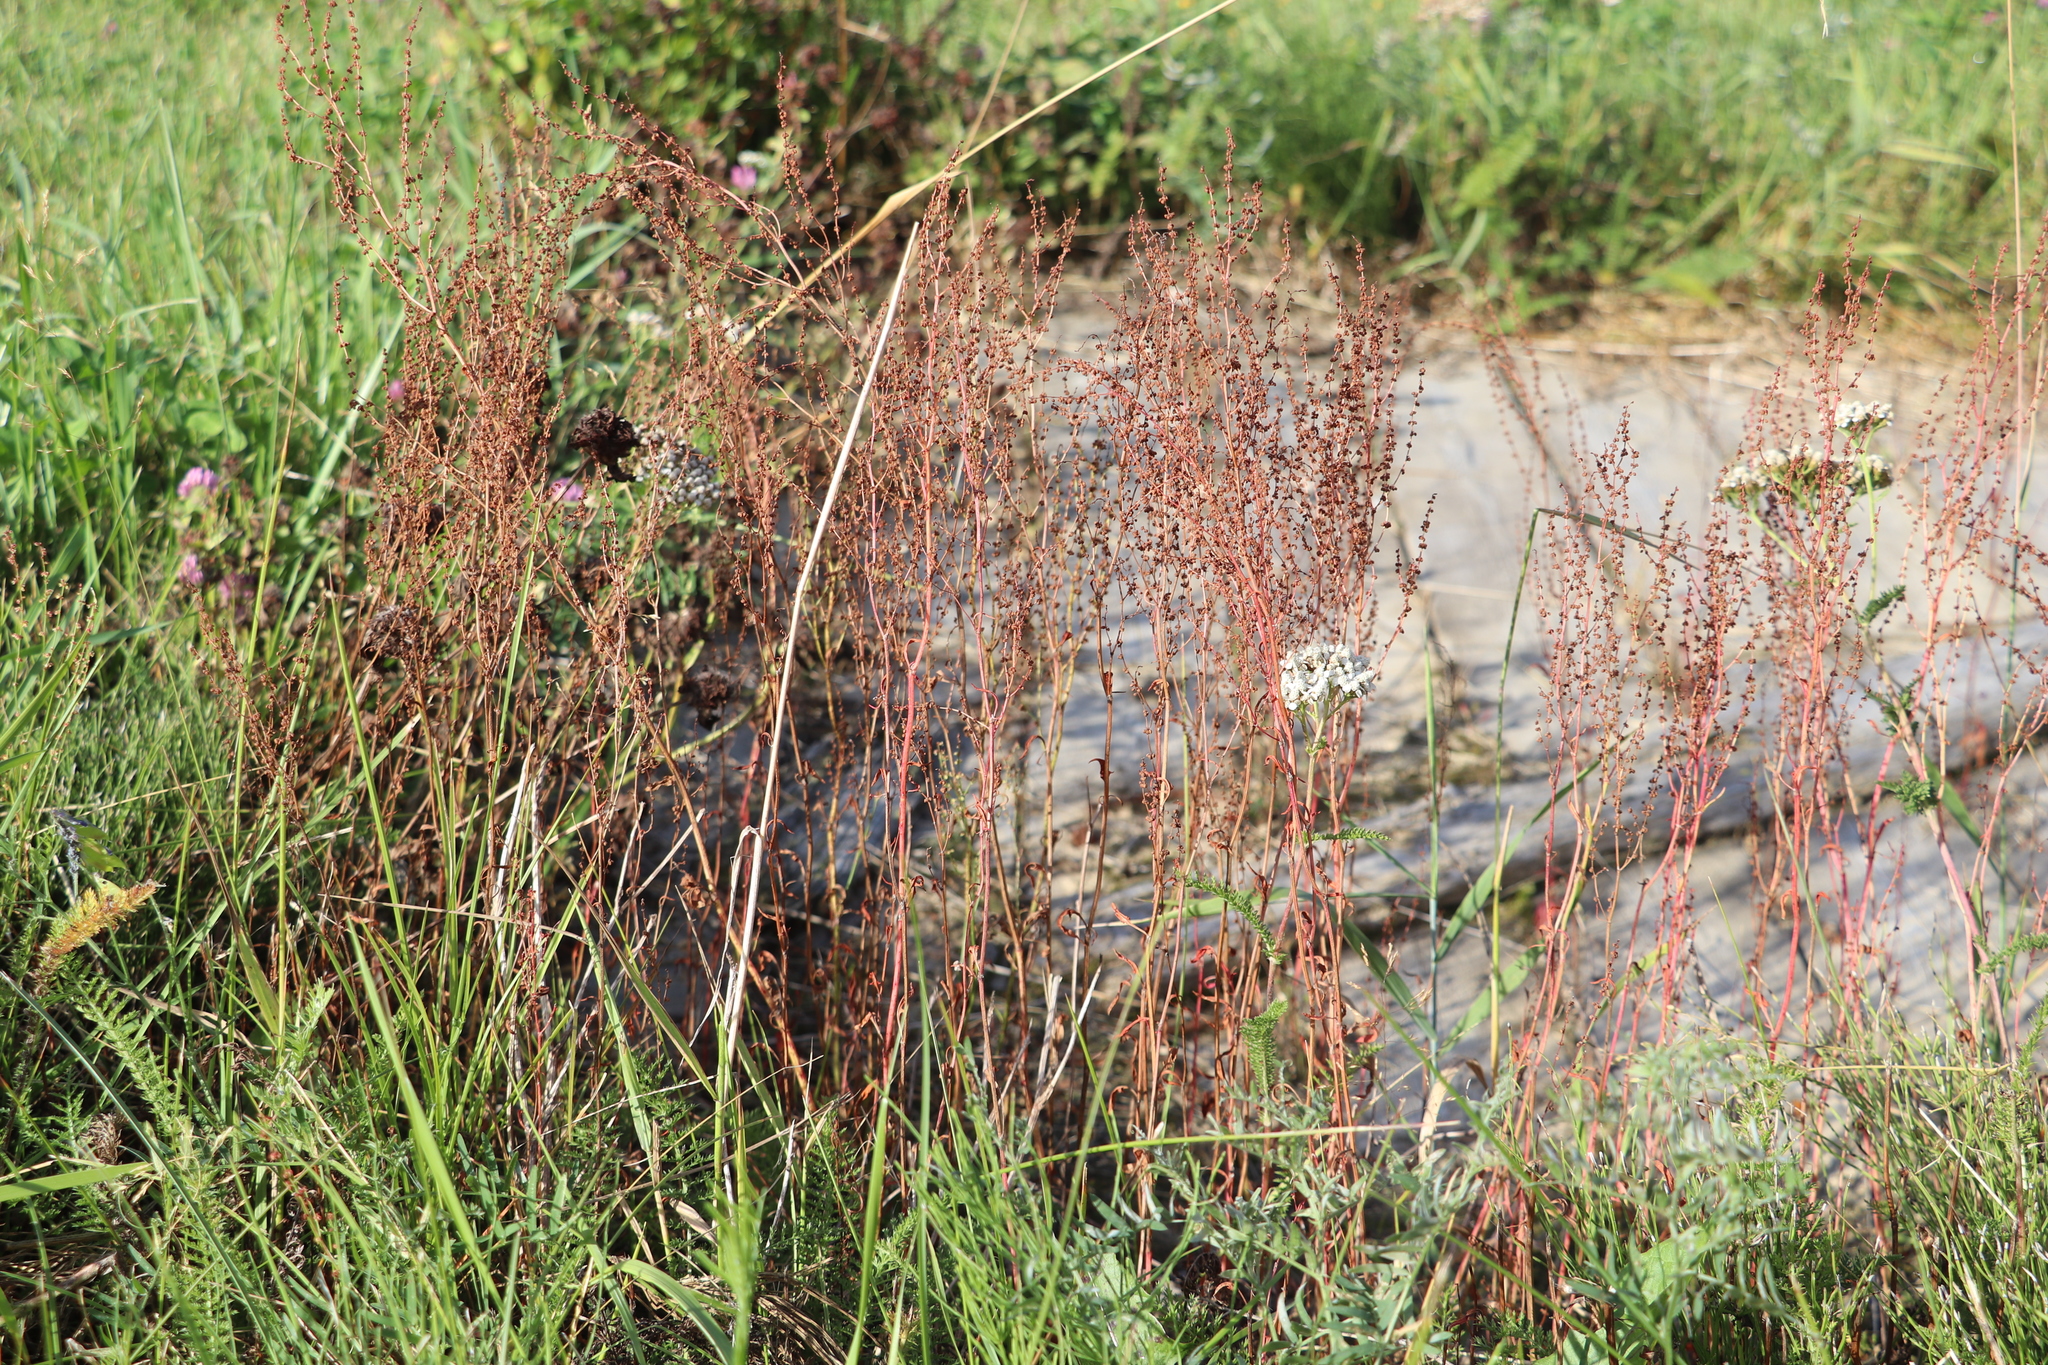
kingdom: Plantae
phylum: Tracheophyta
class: Magnoliopsida
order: Caryophyllales
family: Polygonaceae
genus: Rumex
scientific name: Rumex acetosella
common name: Common sheep sorrel
